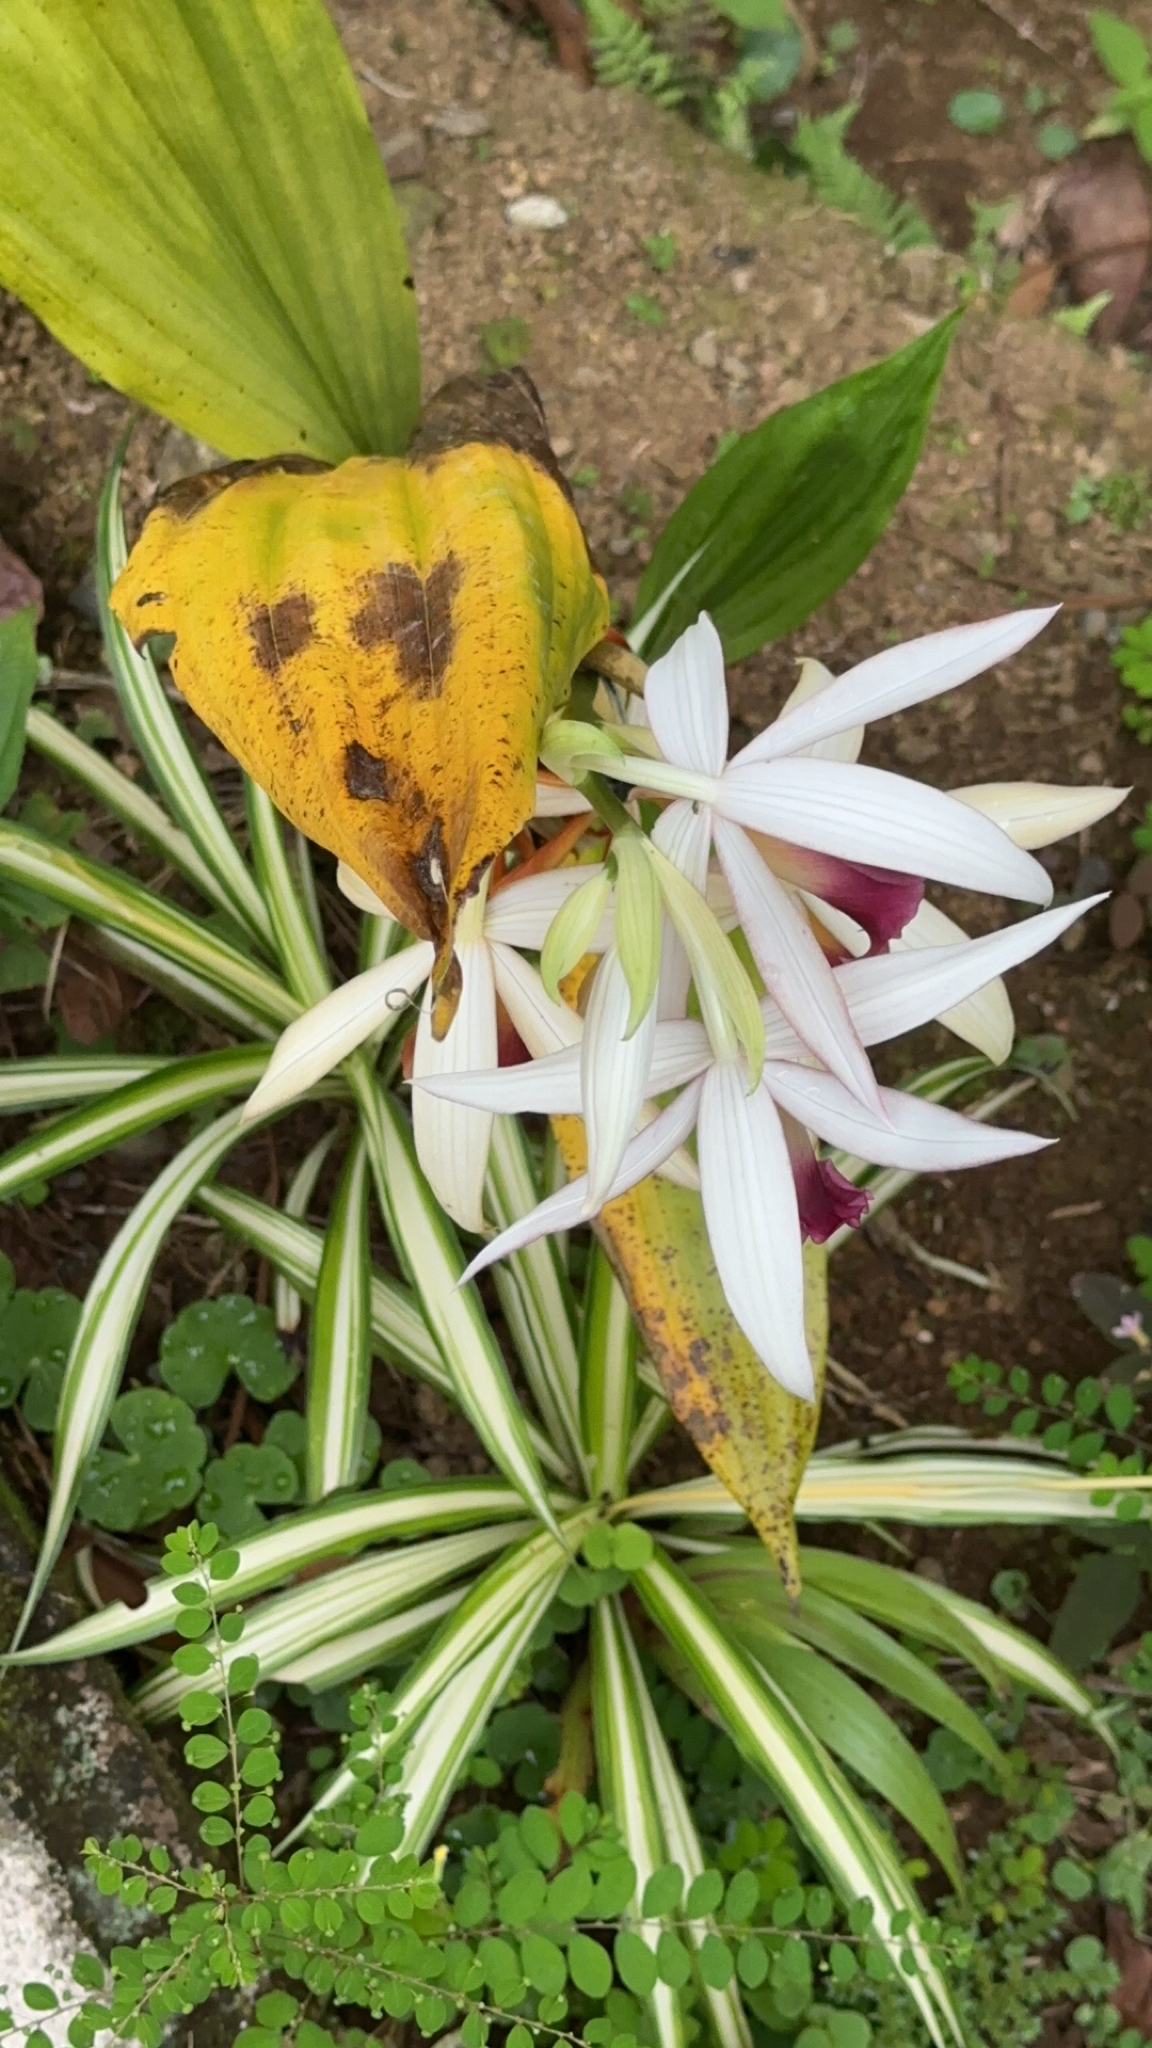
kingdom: Plantae
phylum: Tracheophyta
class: Liliopsida
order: Asparagales
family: Orchidaceae
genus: Calanthe
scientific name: Calanthe tankervilleae
